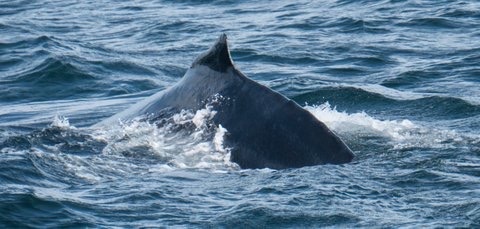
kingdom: Animalia
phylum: Chordata
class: Mammalia
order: Cetacea
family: Balaenopteridae
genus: Megaptera
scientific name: Megaptera novaeangliae
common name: Humpback whale
